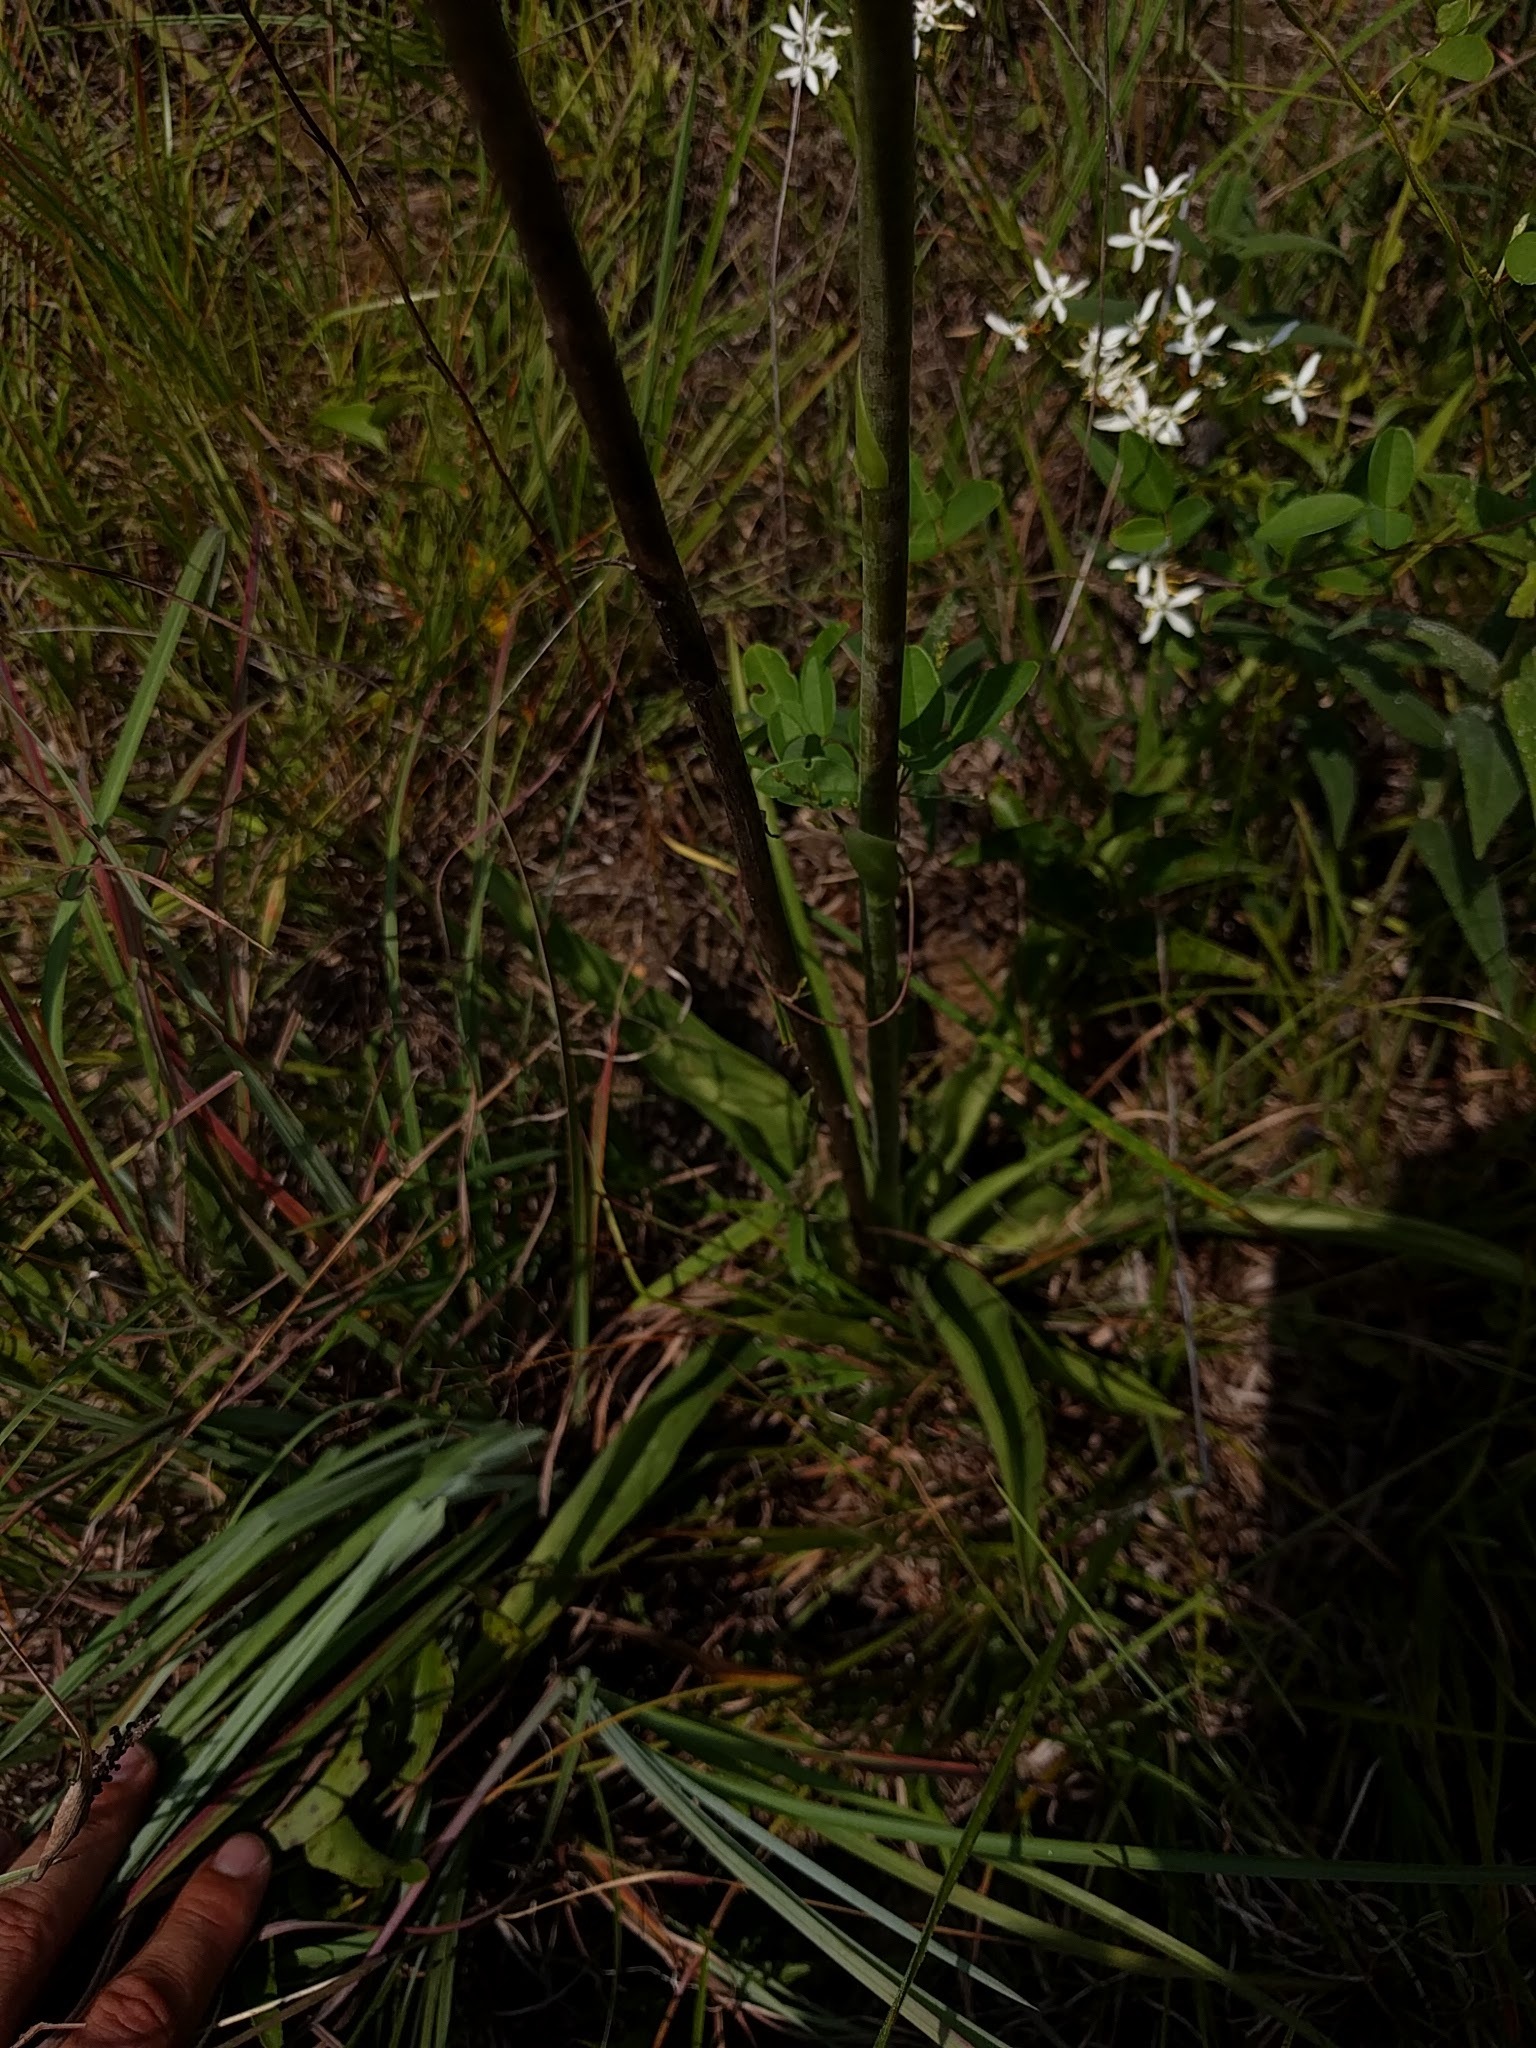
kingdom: Plantae
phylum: Tracheophyta
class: Liliopsida
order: Asparagales
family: Asparagaceae
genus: Agave
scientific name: Agave virginica
